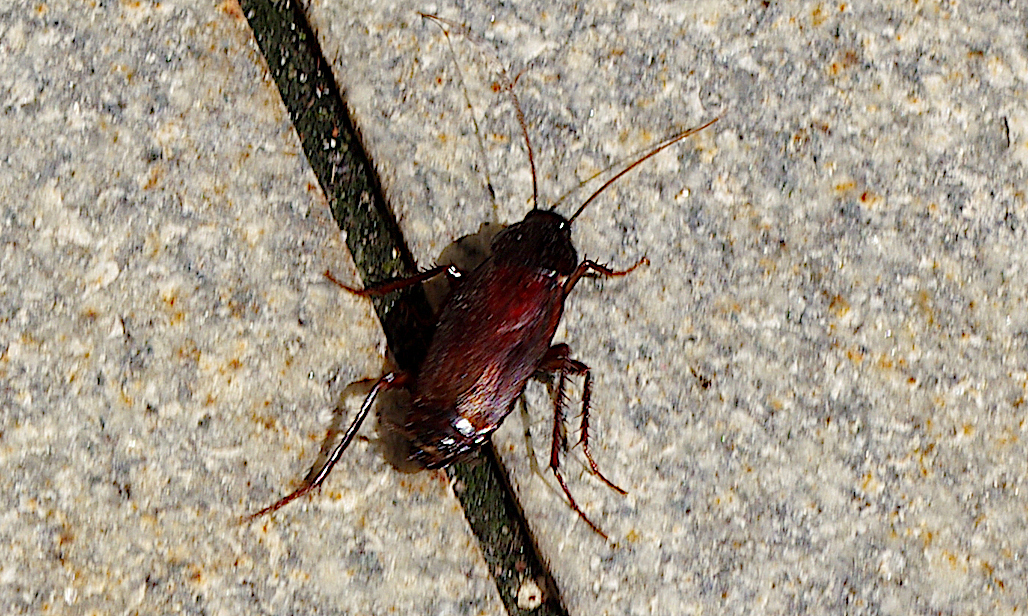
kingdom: Animalia
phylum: Arthropoda
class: Insecta
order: Blattodea
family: Blattidae
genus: Blatta
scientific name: Blatta orientalis
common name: Oriental cockroach
